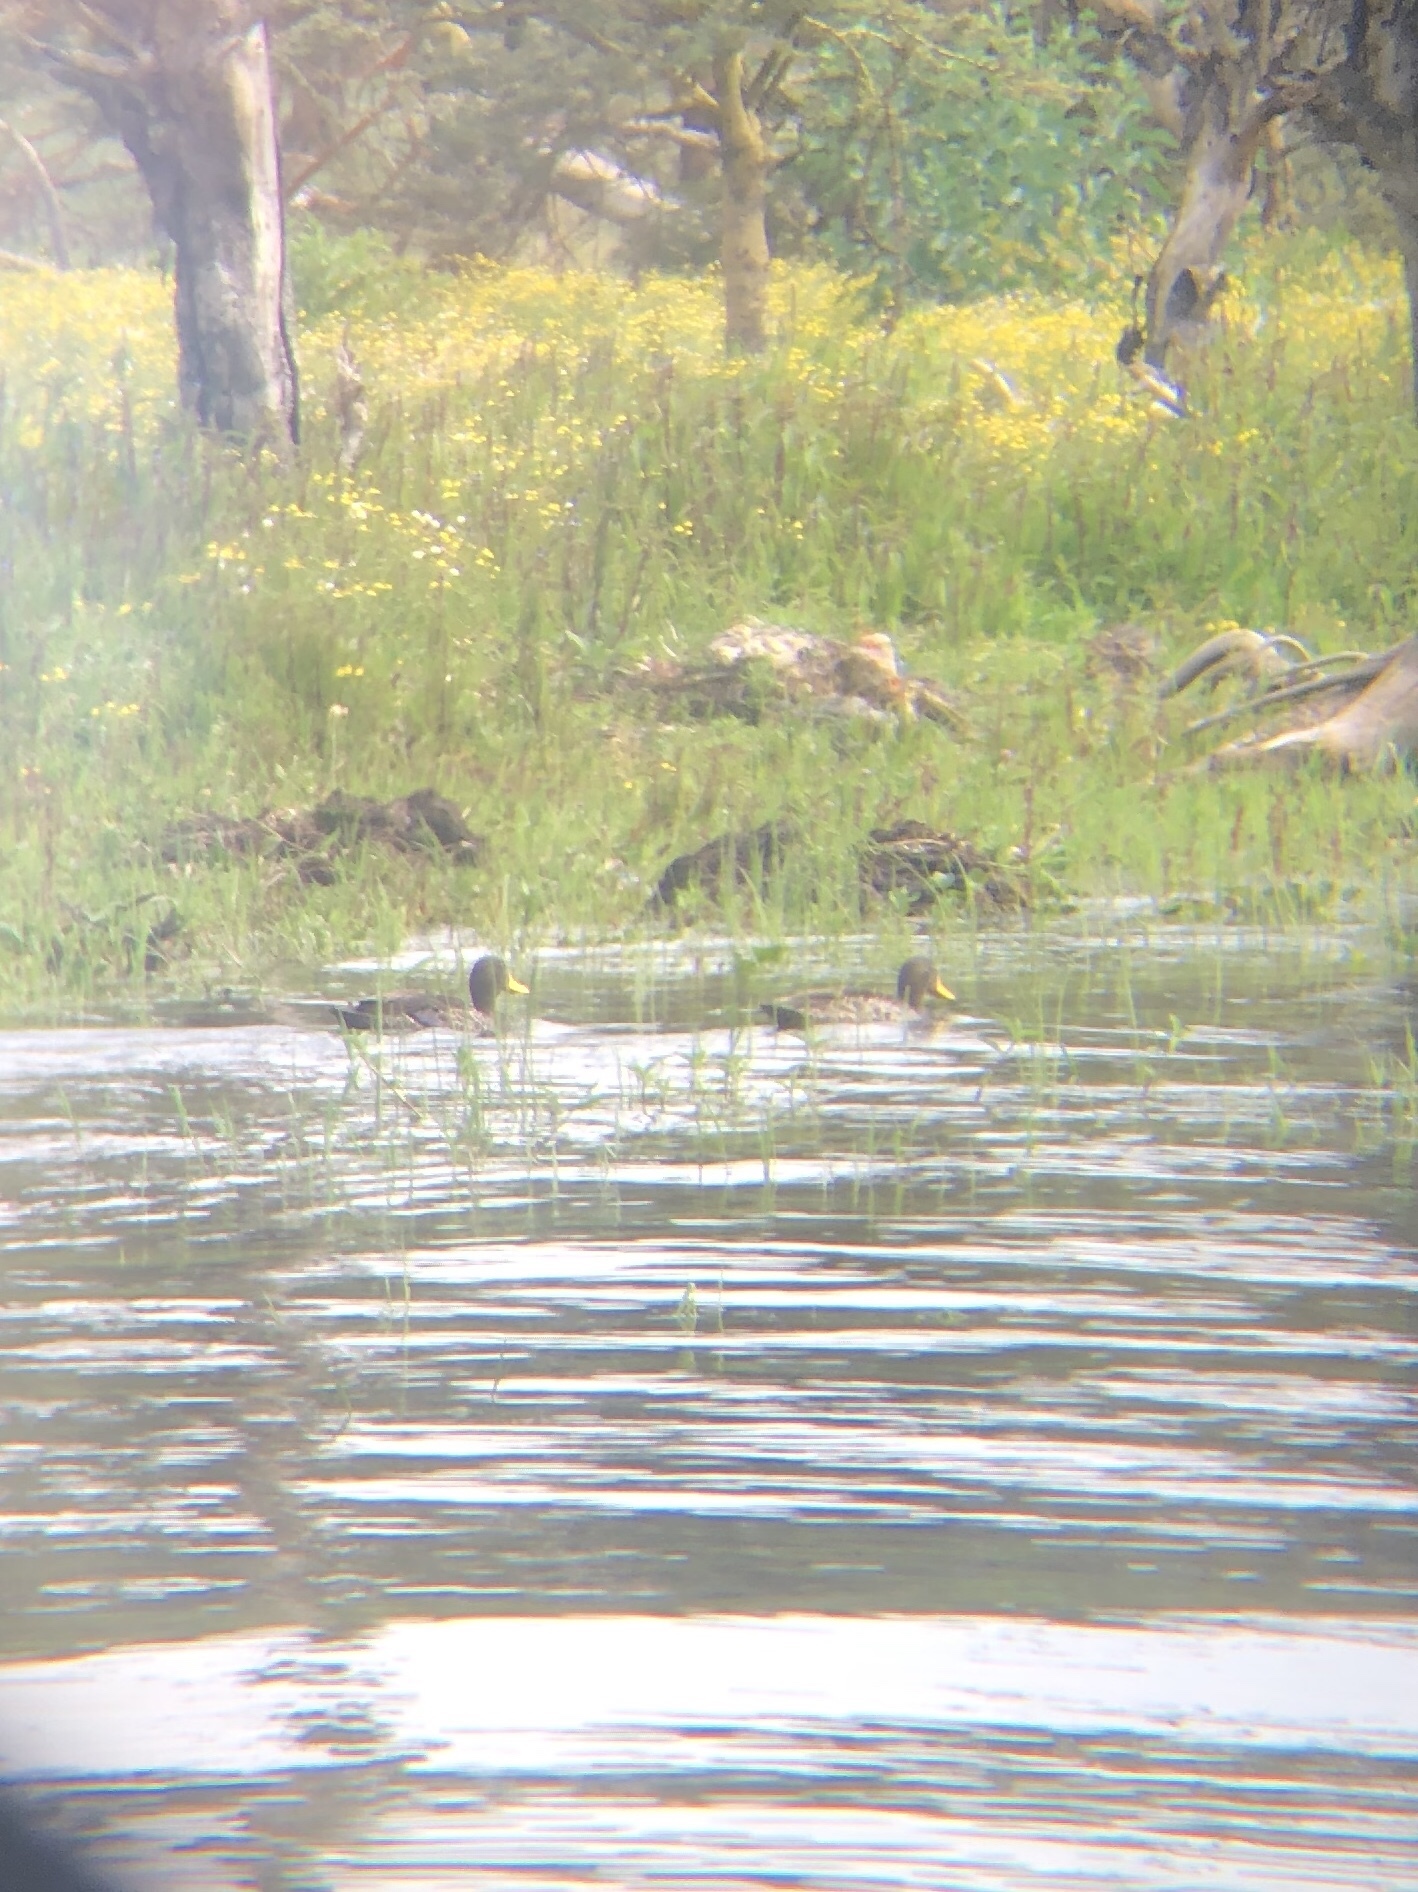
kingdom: Animalia
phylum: Chordata
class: Aves
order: Anseriformes
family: Anatidae
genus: Anas
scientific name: Anas undulata
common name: Yellow-billed duck
